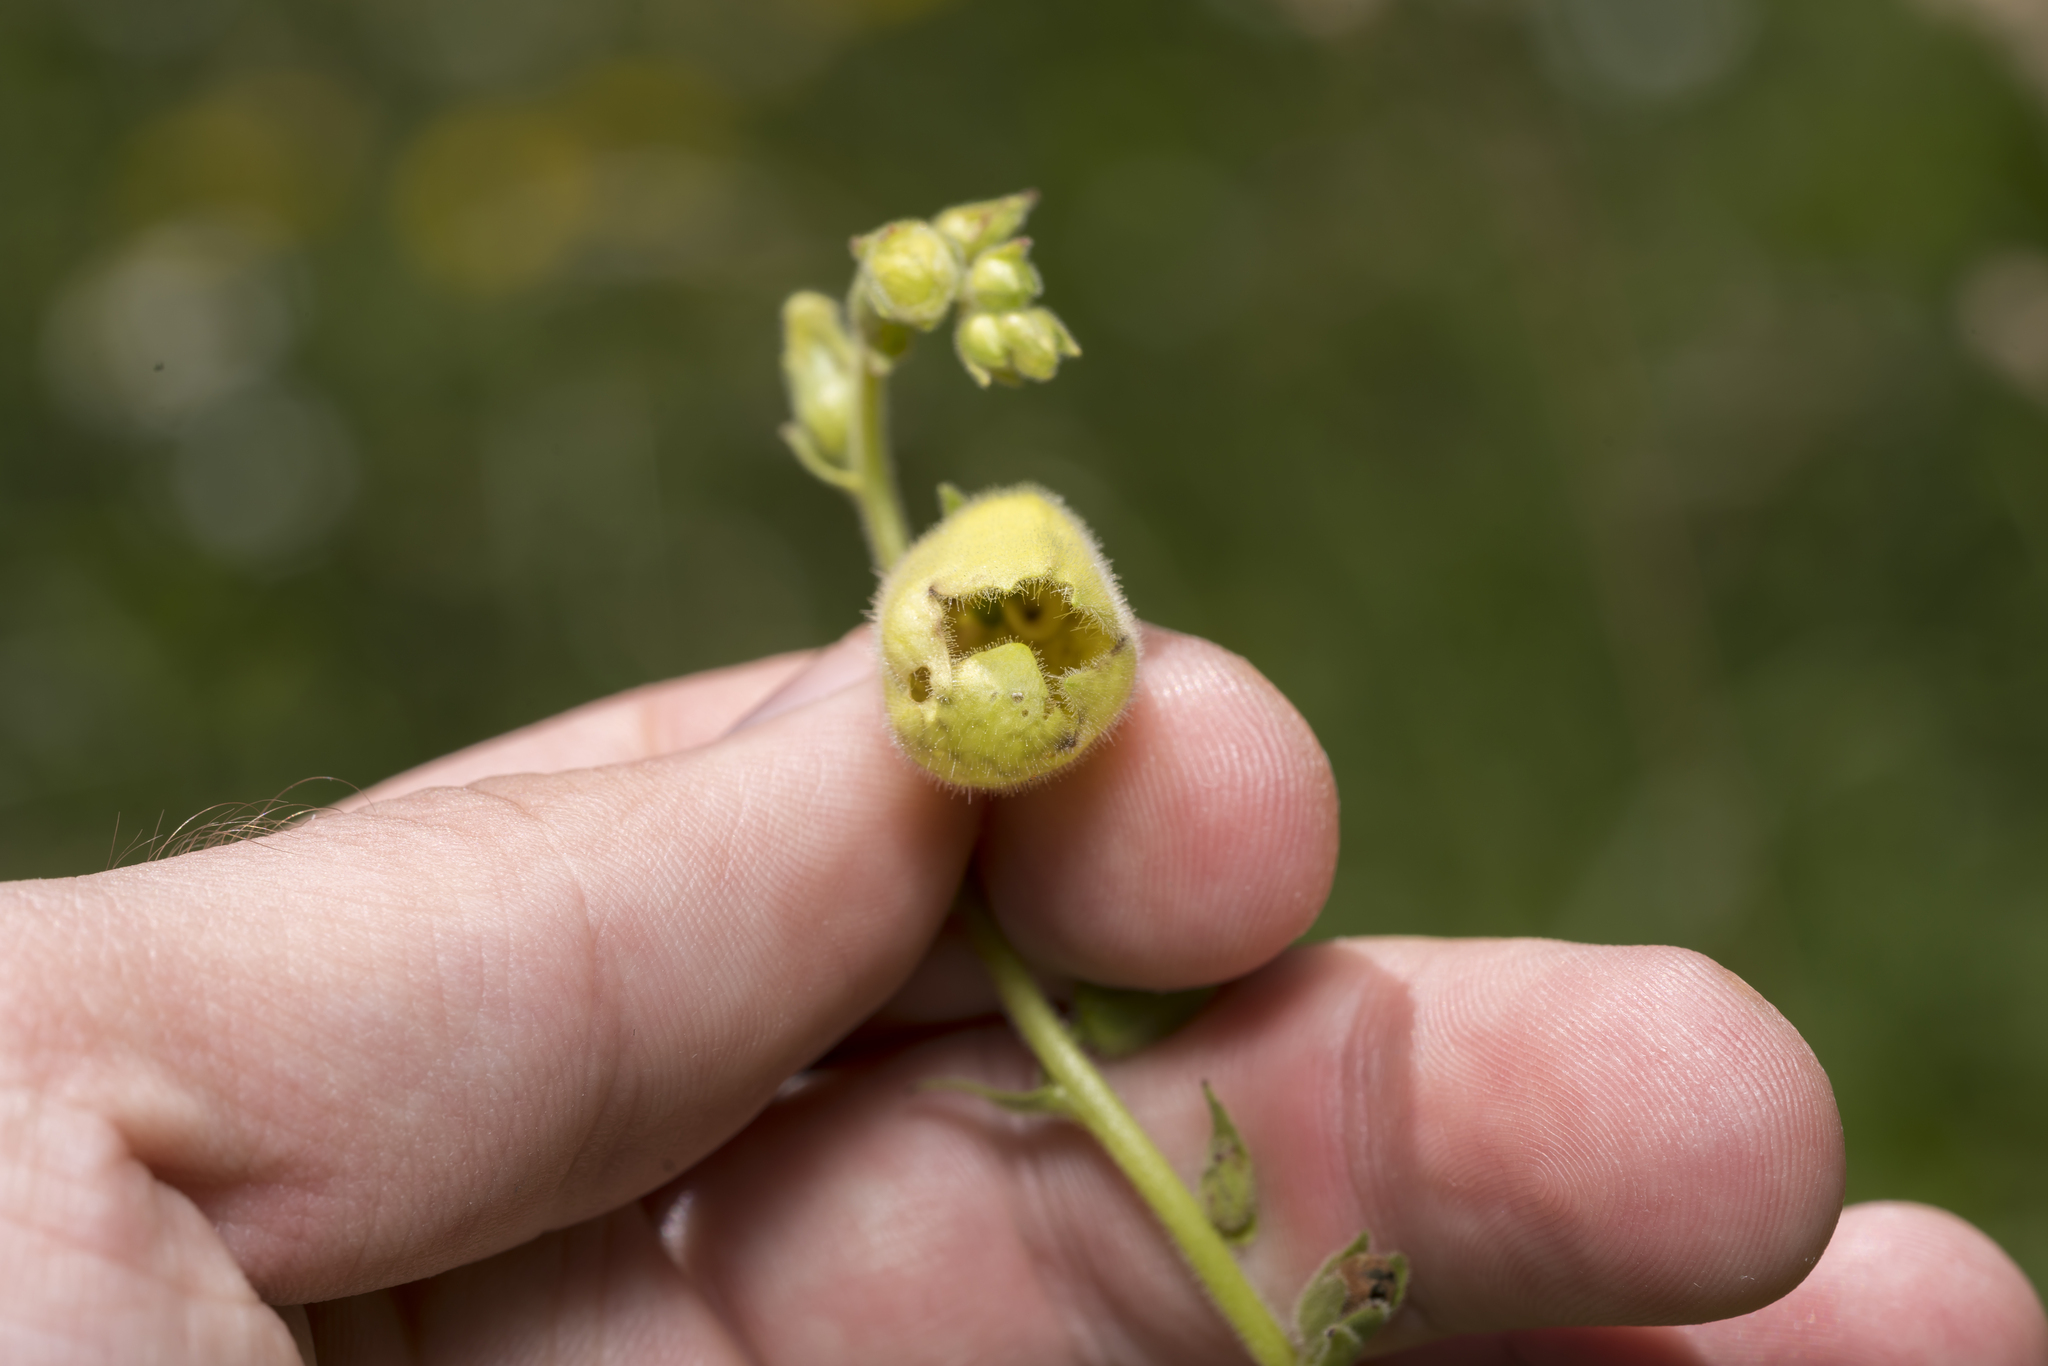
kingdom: Plantae
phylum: Tracheophyta
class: Magnoliopsida
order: Lamiales
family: Plantaginaceae
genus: Digitalis
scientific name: Digitalis grandiflora
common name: Yellow foxglove
